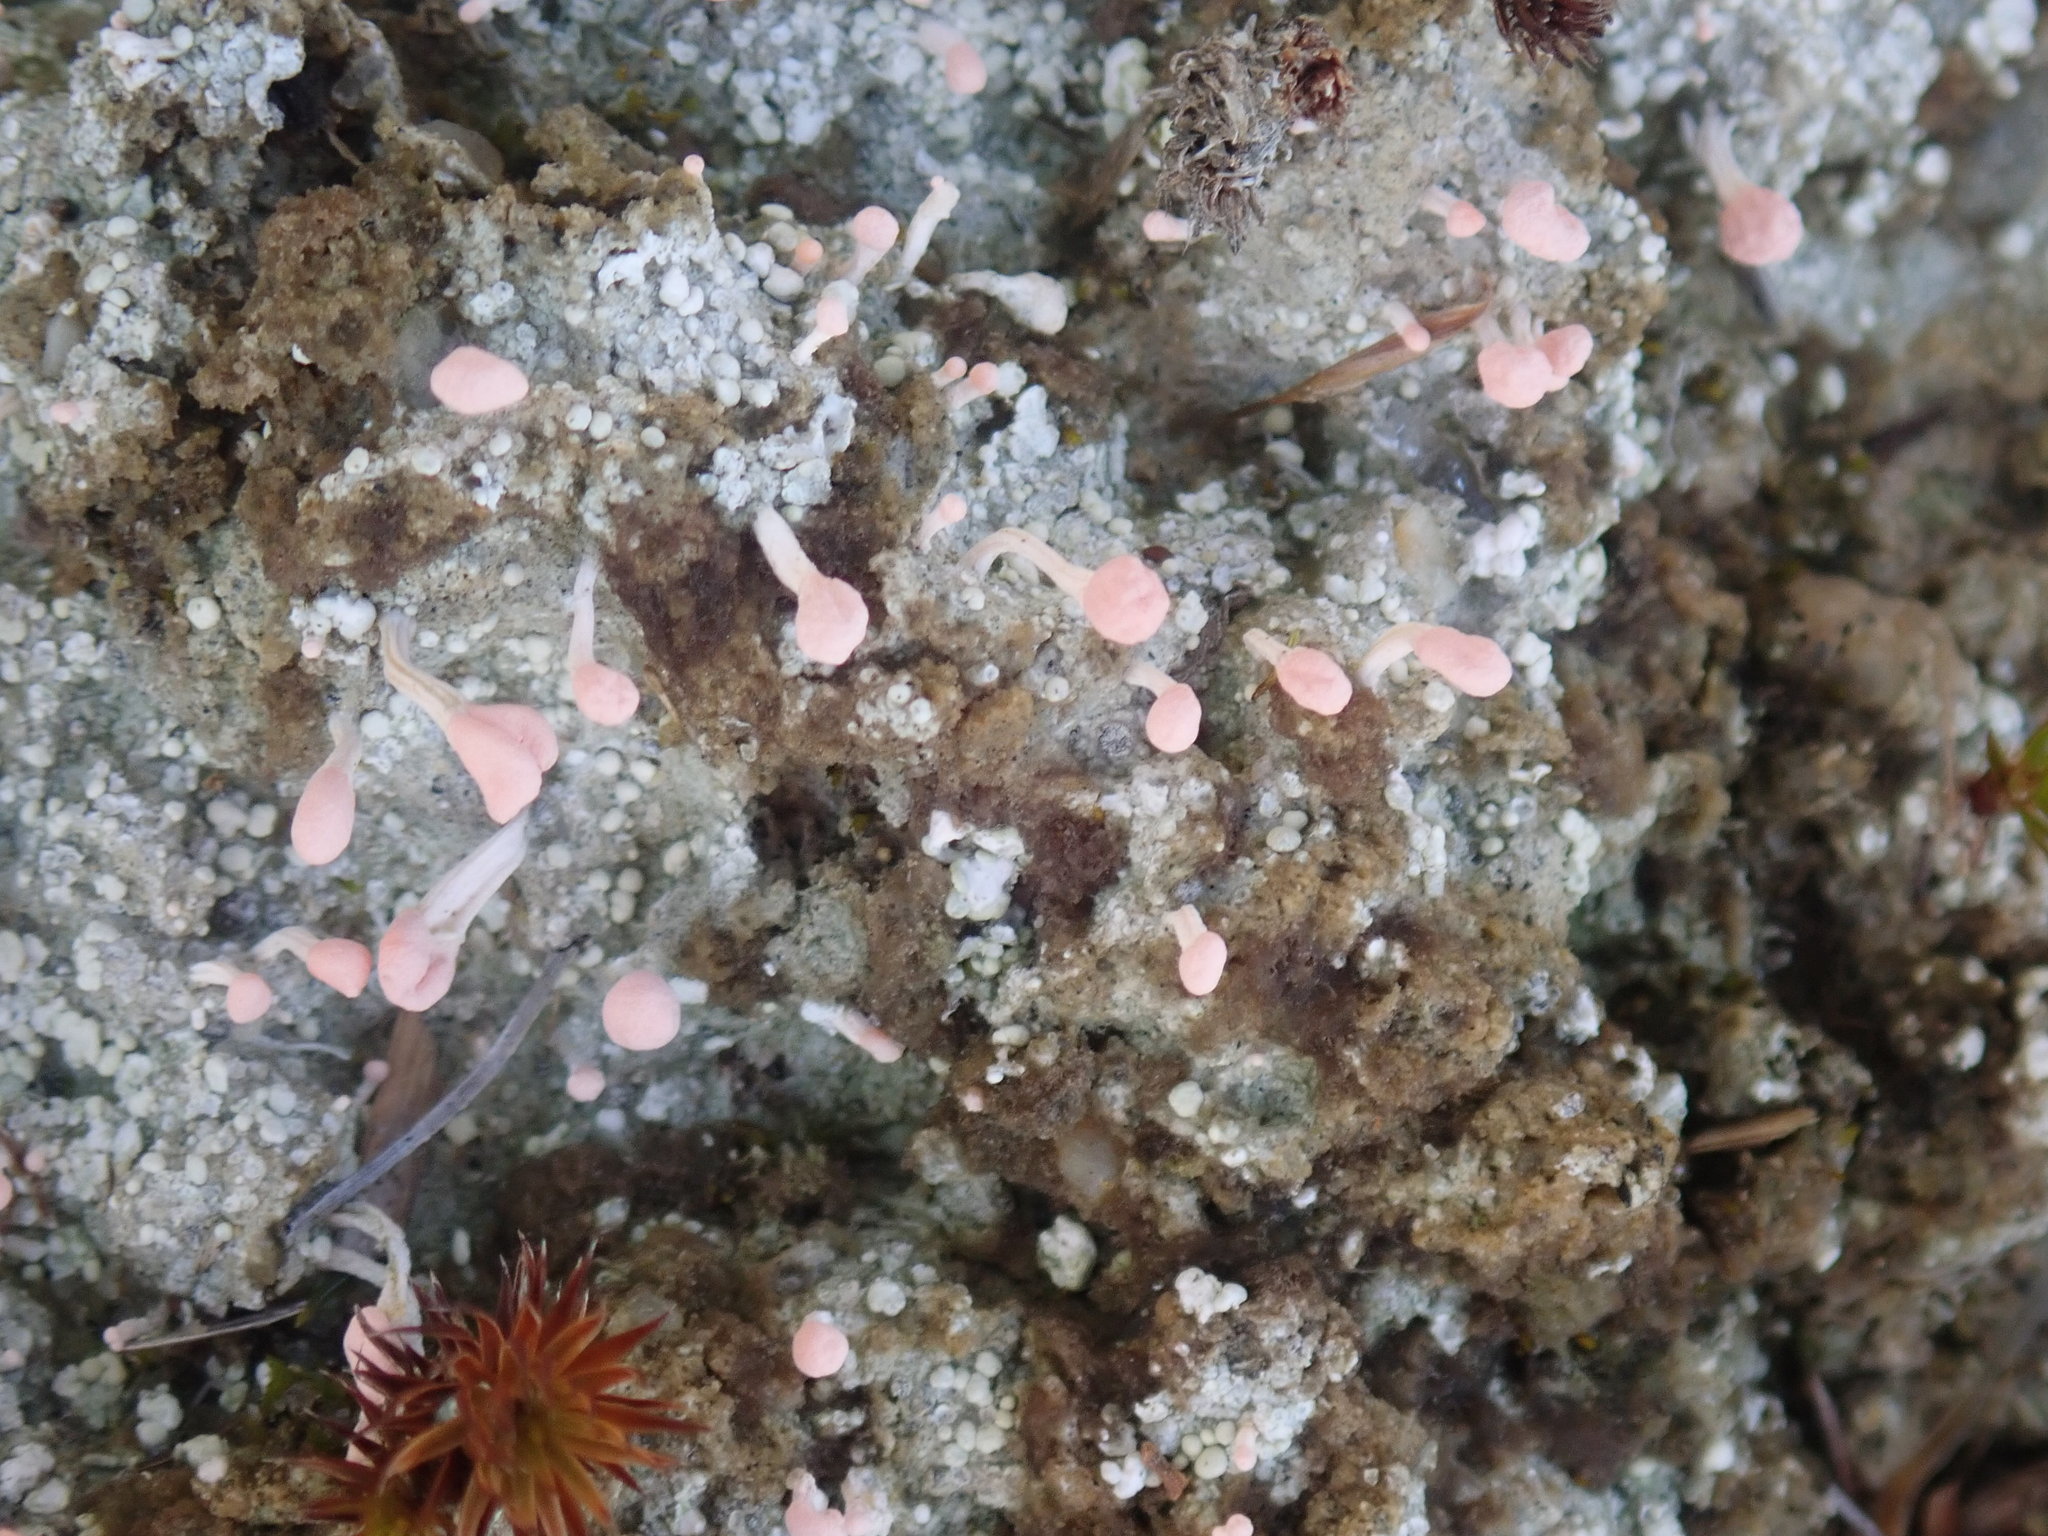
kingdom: Fungi
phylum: Ascomycota
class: Lecanoromycetes
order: Pertusariales
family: Icmadophilaceae
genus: Dibaeis
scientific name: Dibaeis baeomyces
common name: Pink earth lichen
